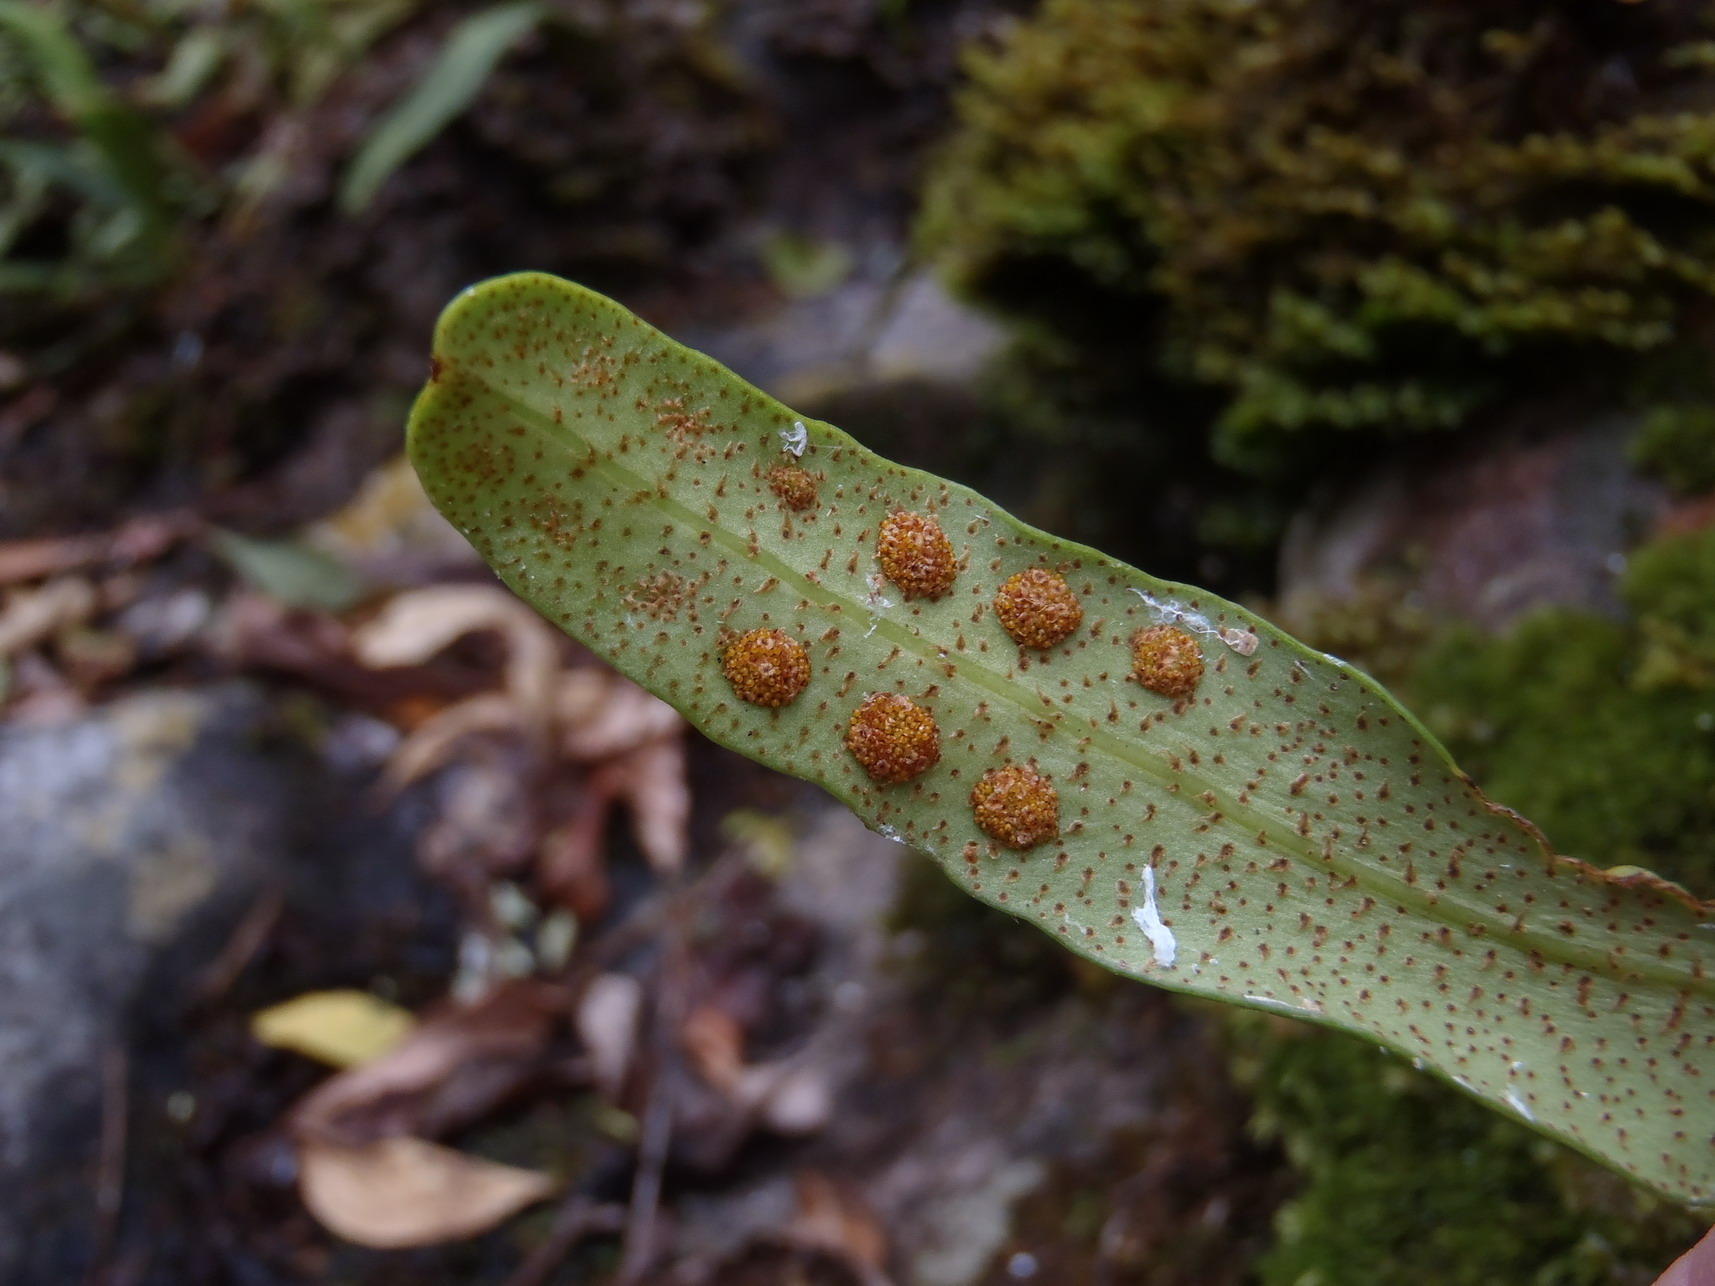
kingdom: Plantae
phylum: Tracheophyta
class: Polypodiopsida
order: Polypodiales
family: Polypodiaceae
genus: Pleopeltis
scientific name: Pleopeltis macrocarpa
